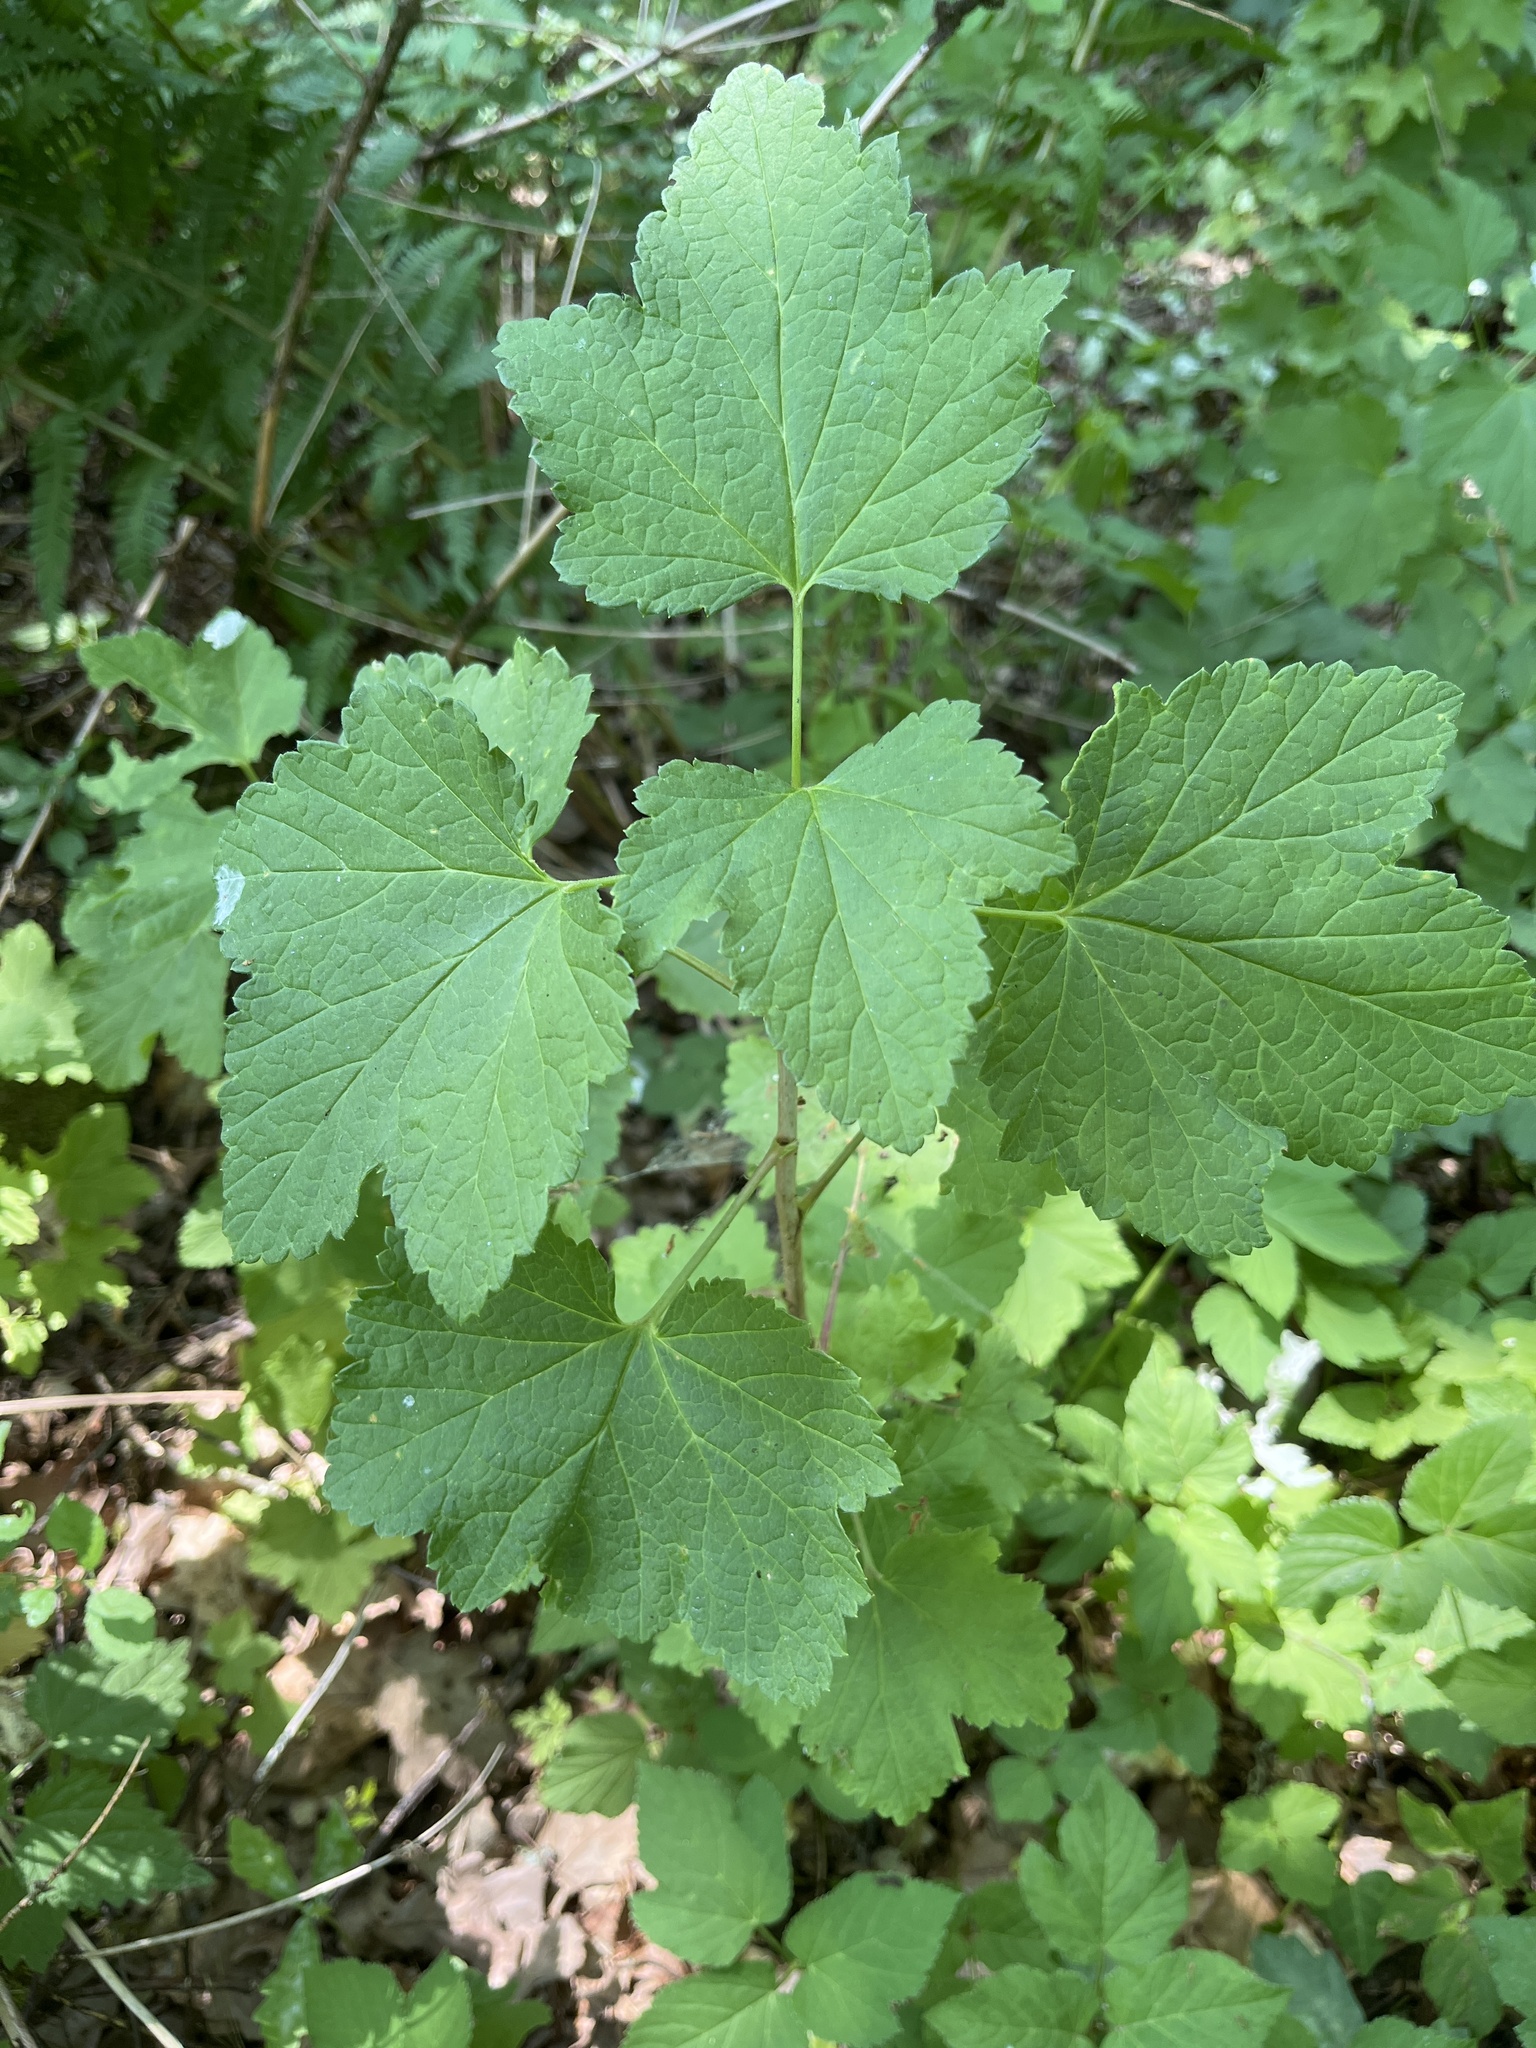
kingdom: Plantae
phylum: Tracheophyta
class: Magnoliopsida
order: Saxifragales
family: Grossulariaceae
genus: Ribes
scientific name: Ribes rubrum
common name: Red currant
